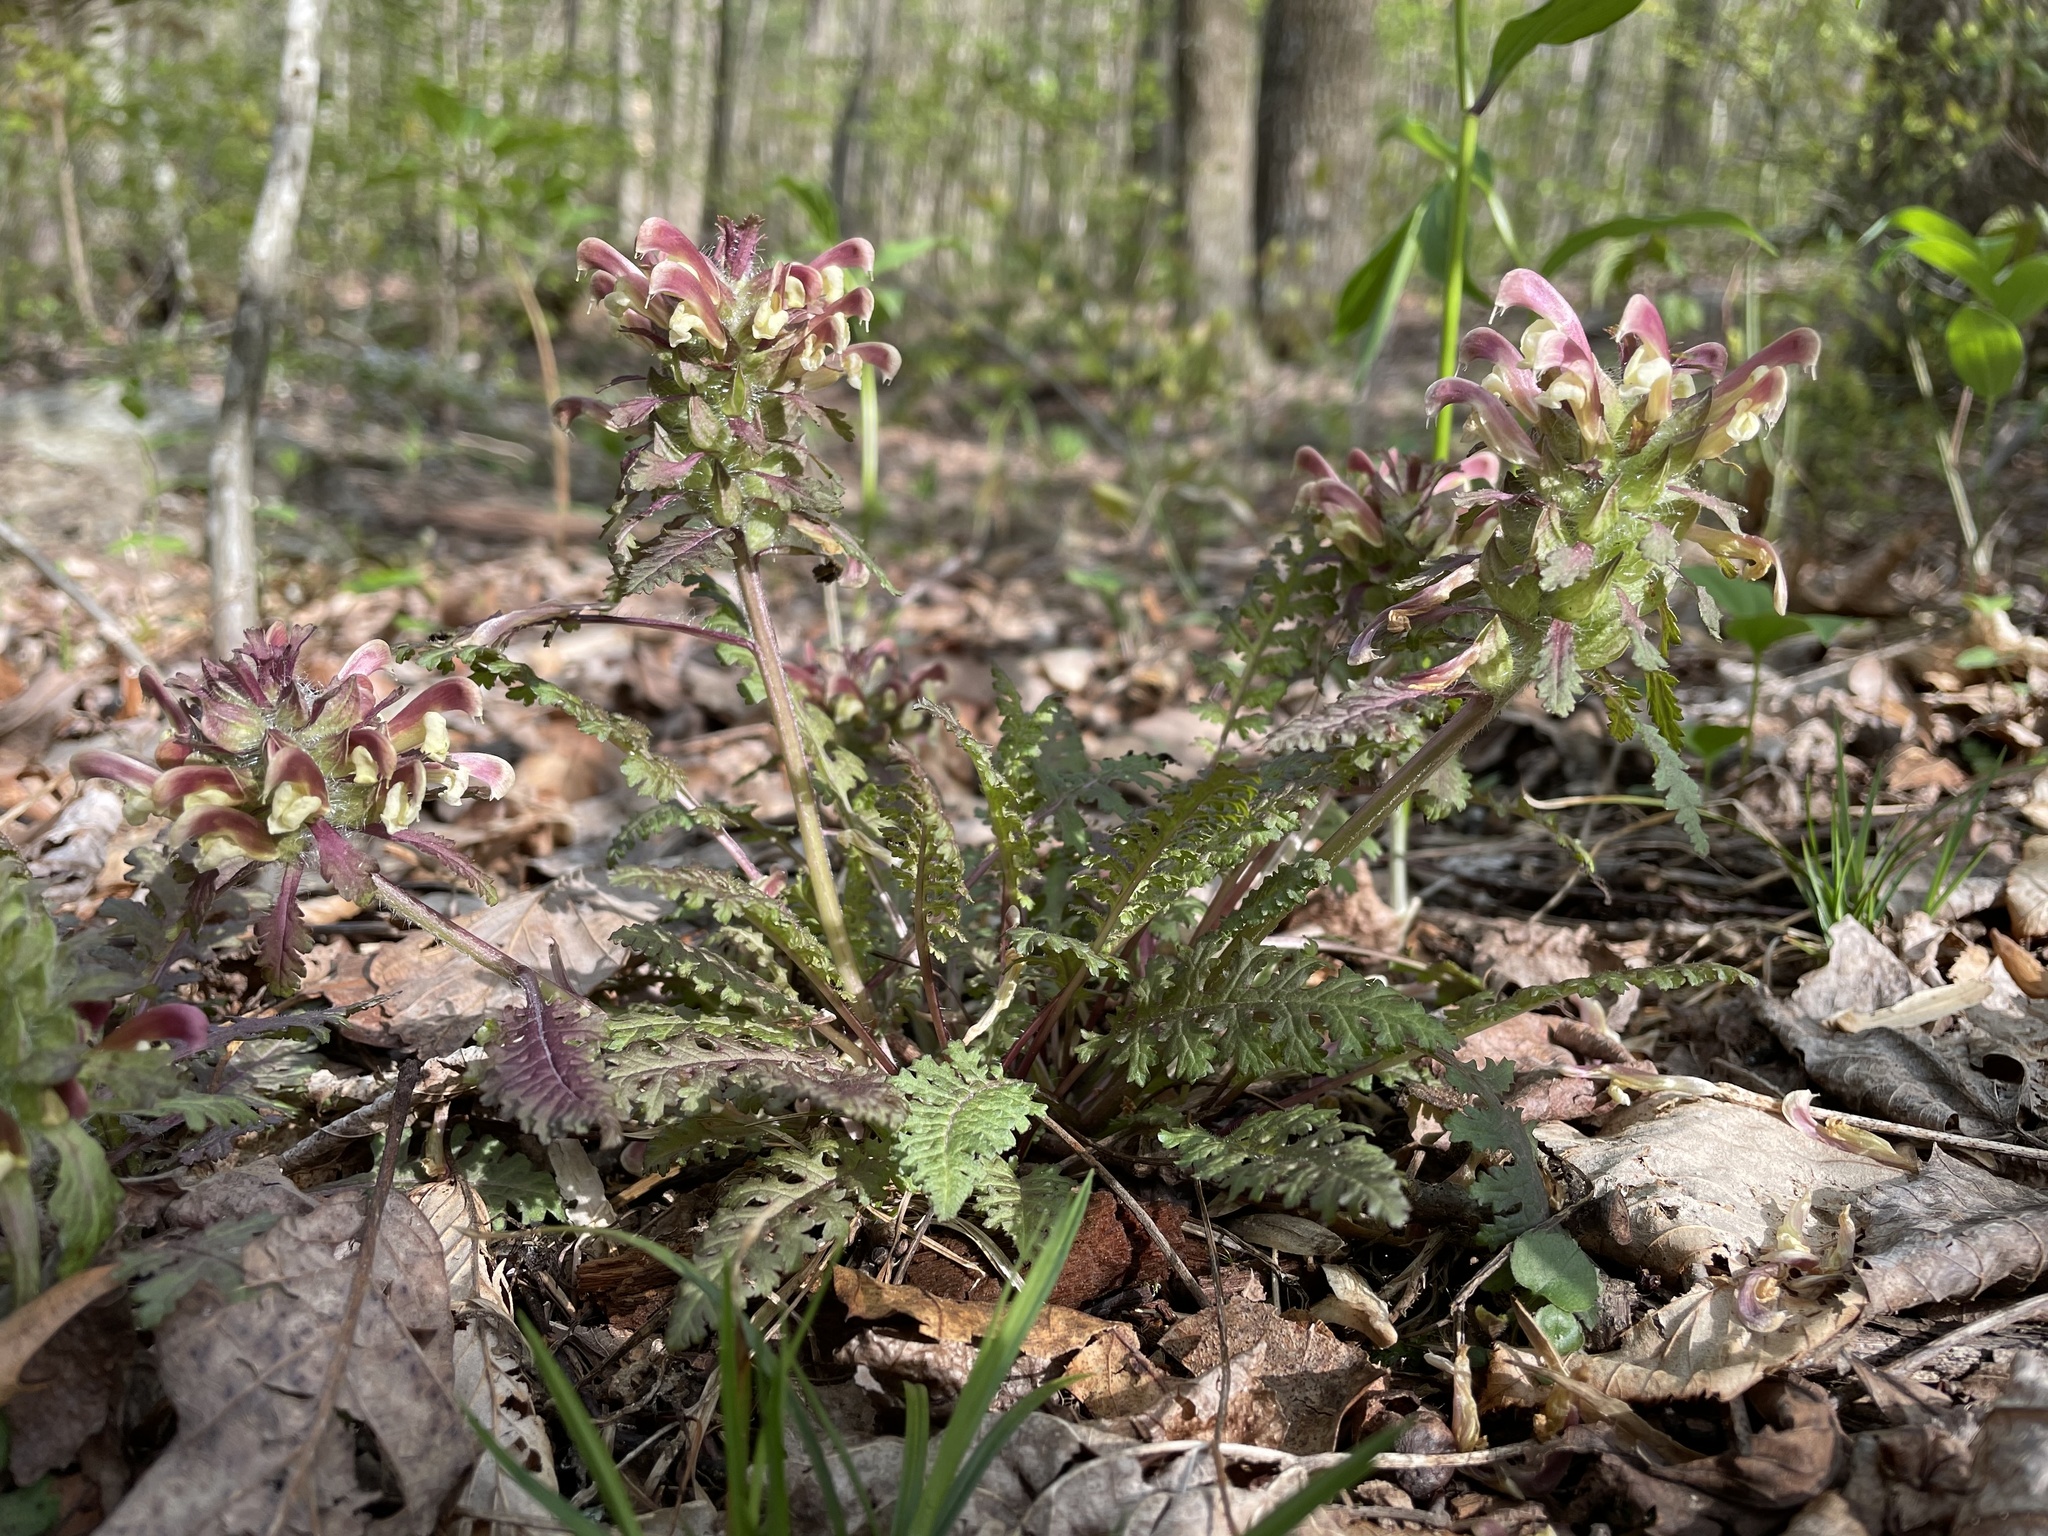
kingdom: Plantae
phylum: Tracheophyta
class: Magnoliopsida
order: Lamiales
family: Orobanchaceae
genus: Pedicularis
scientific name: Pedicularis canadensis
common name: Early lousewort
